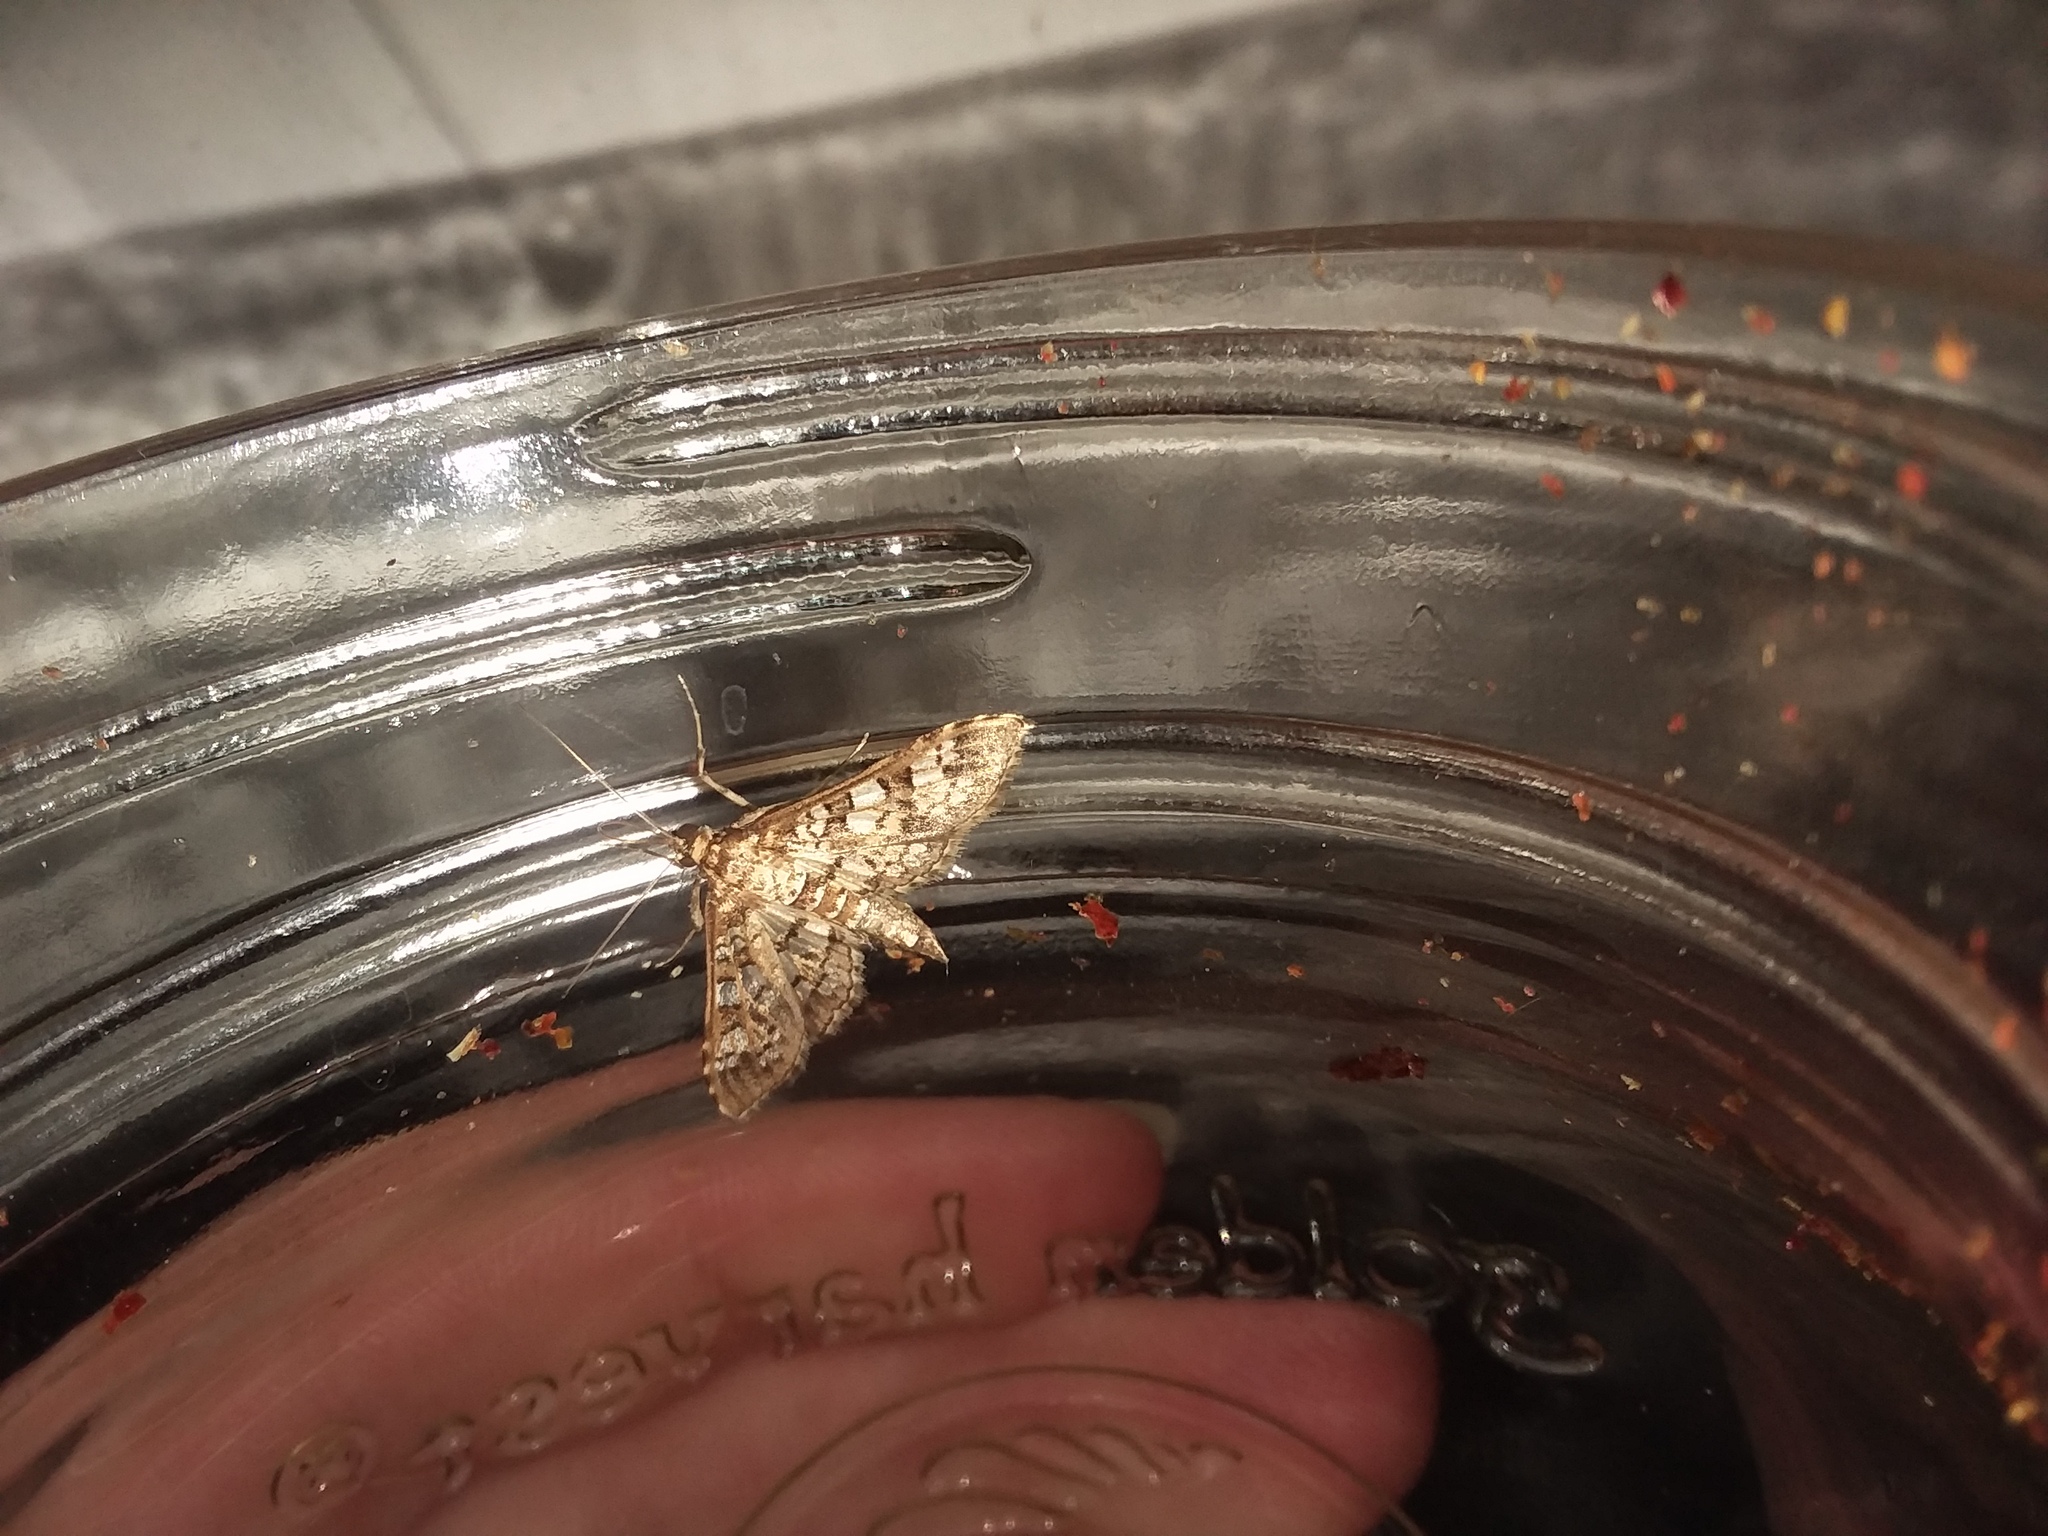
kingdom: Animalia
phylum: Arthropoda
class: Insecta
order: Lepidoptera
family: Crambidae
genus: Samea
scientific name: Samea ecclesialis
